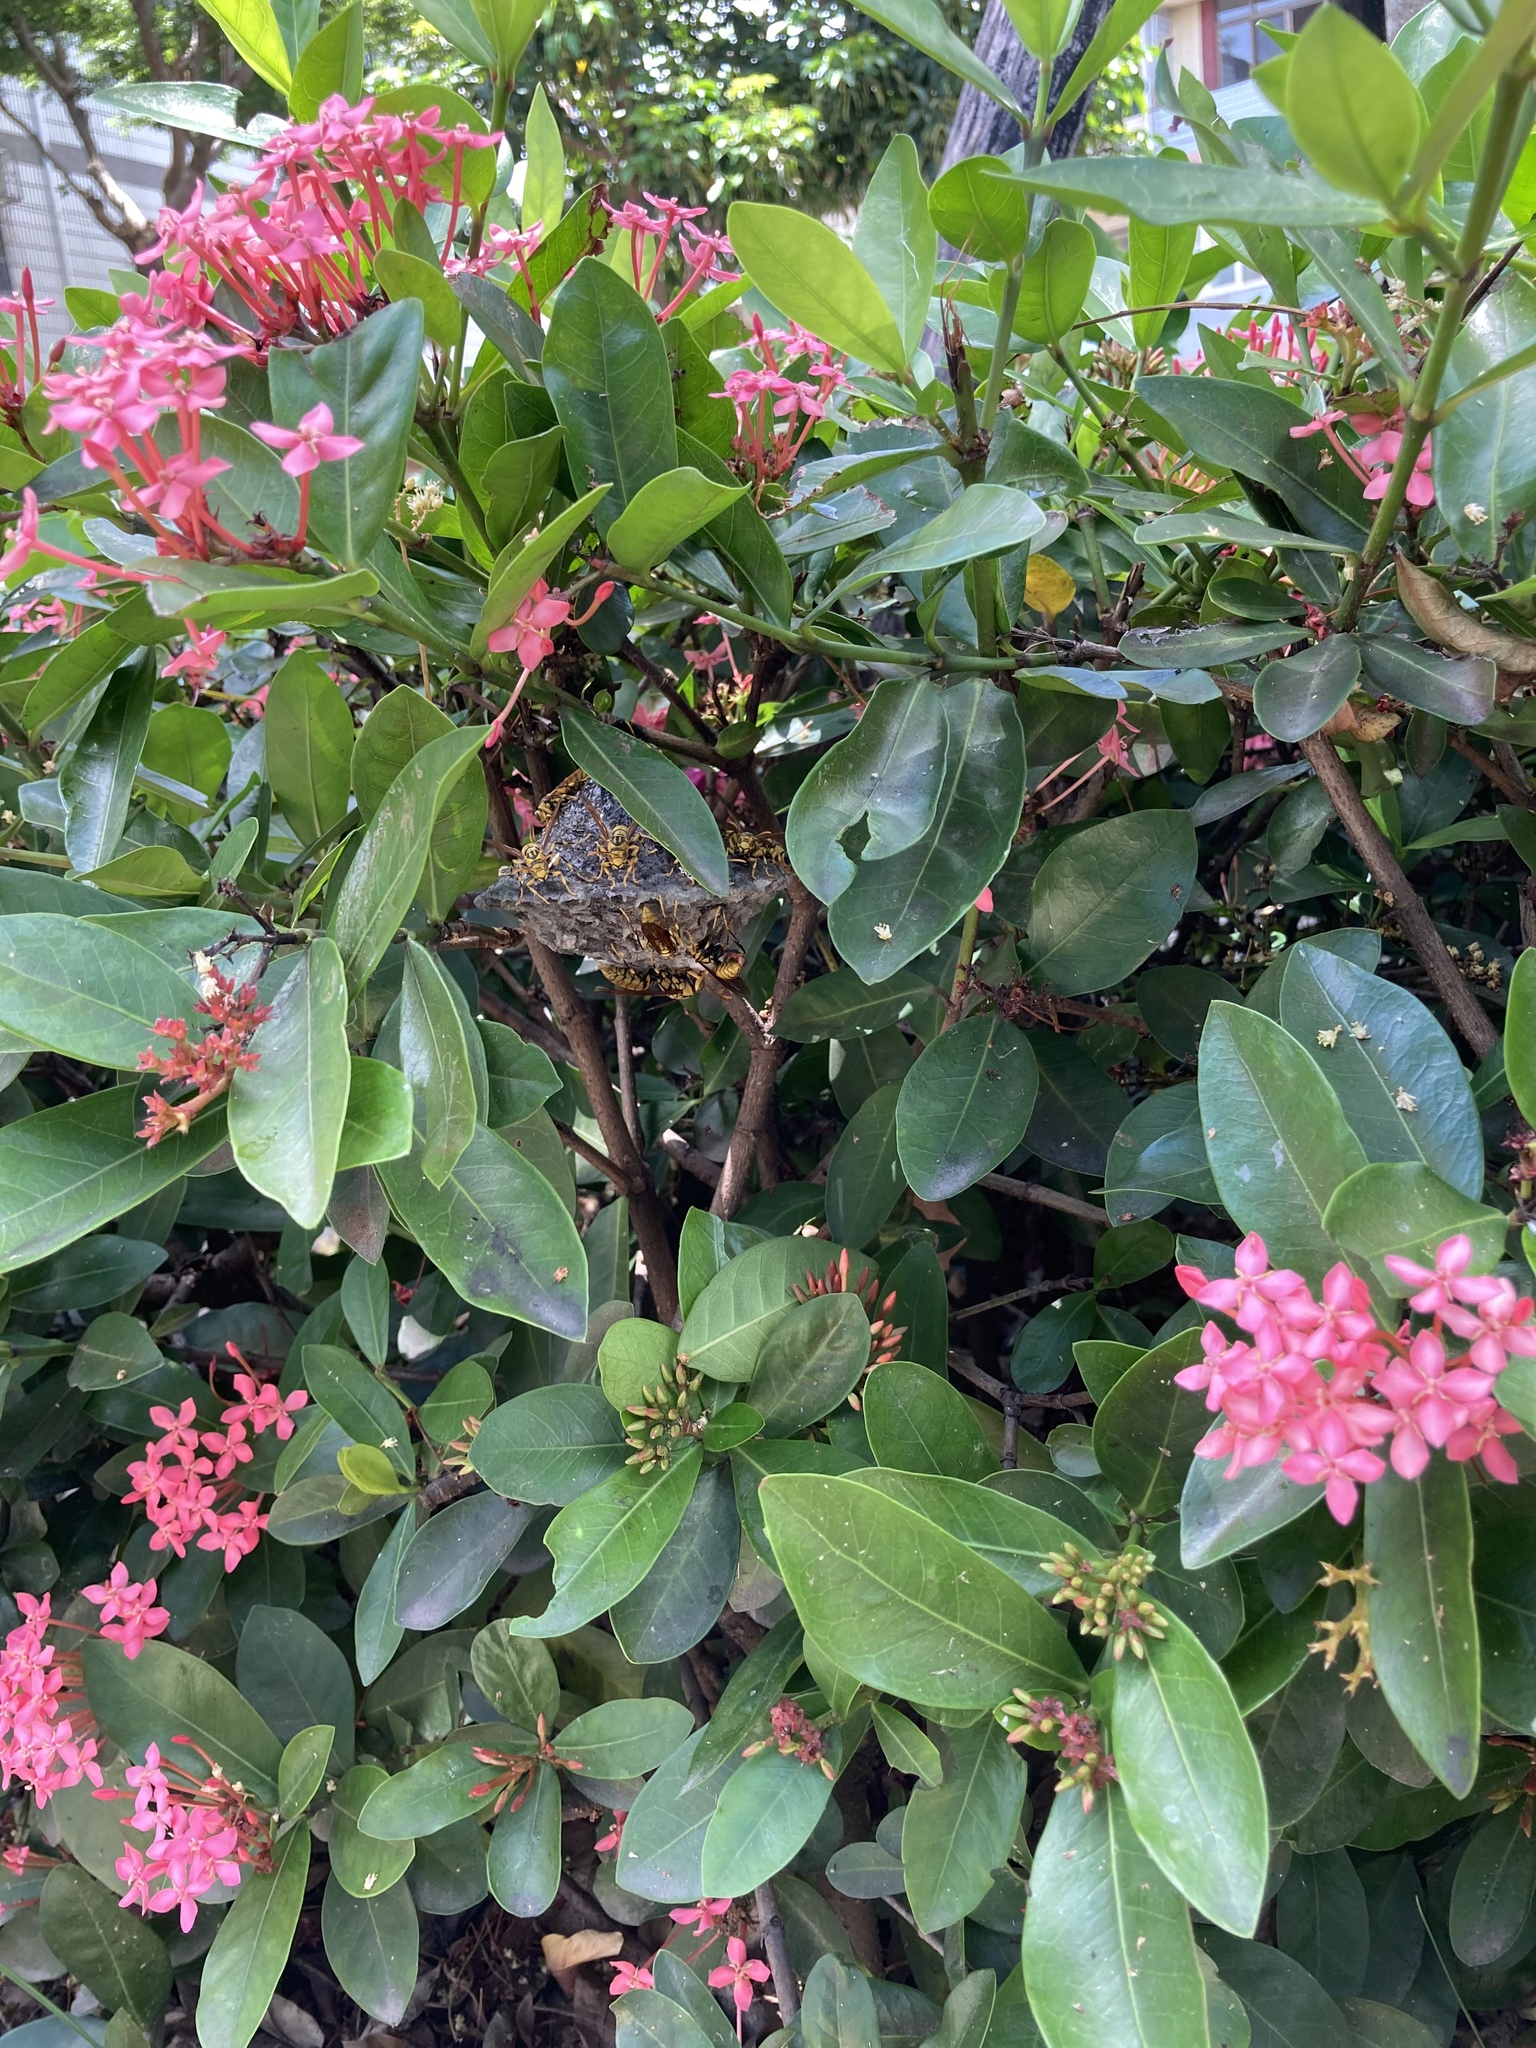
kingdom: Animalia
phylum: Arthropoda
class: Insecta
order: Hymenoptera
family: Eumenidae
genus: Polistes
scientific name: Polistes rothneyi
